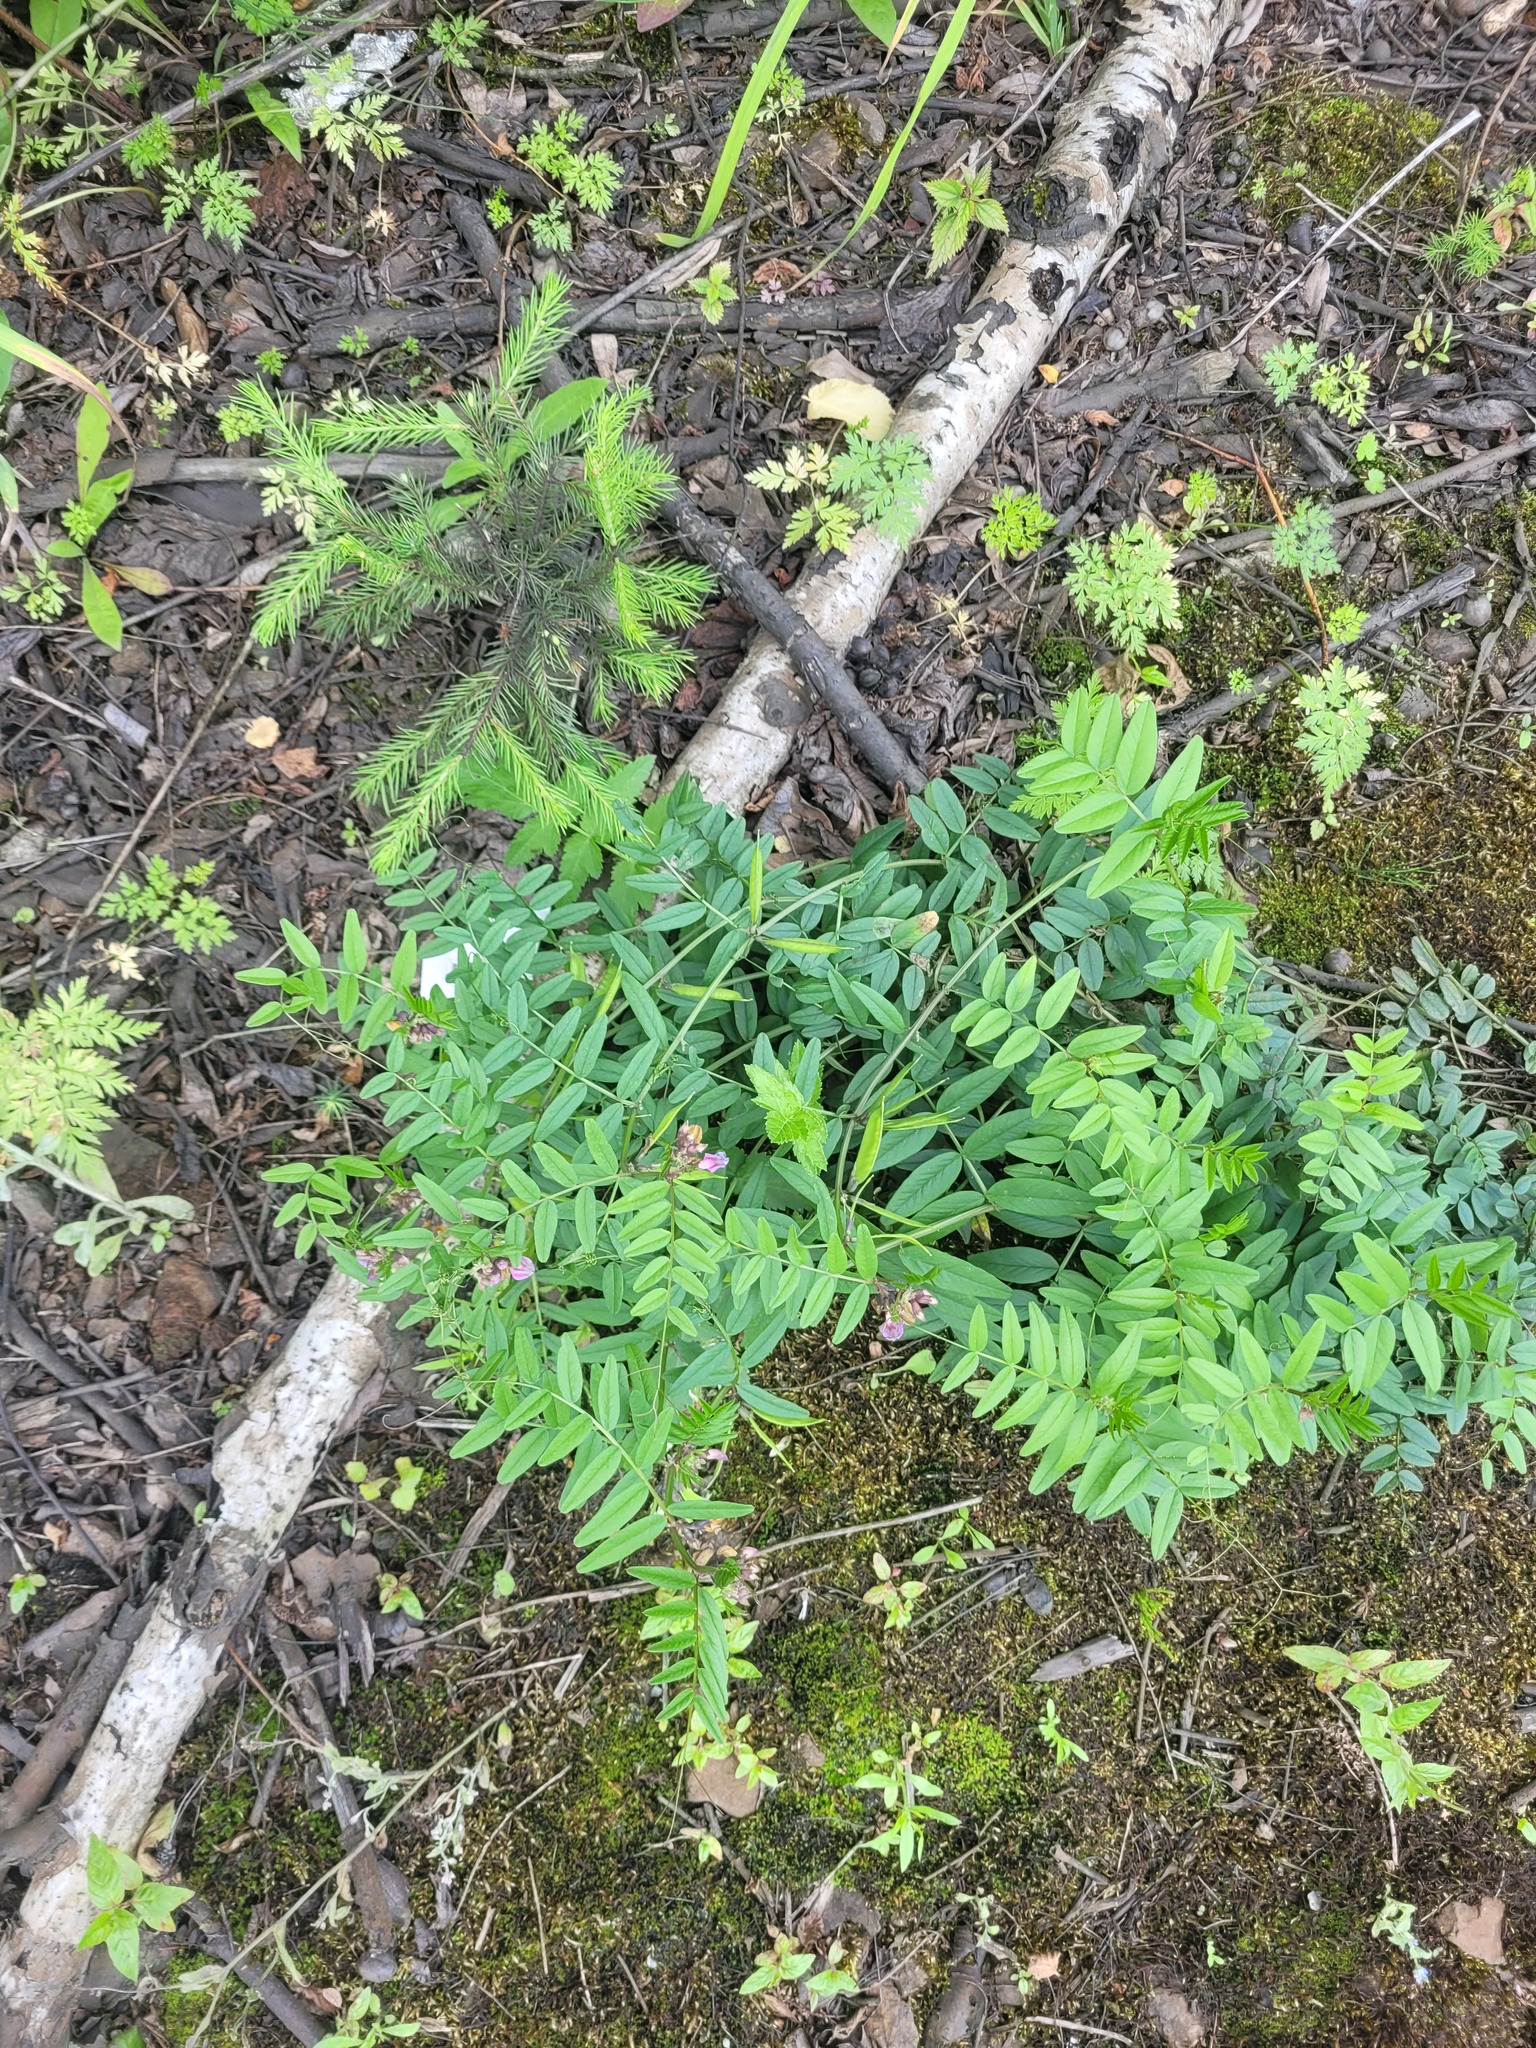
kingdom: Plantae
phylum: Tracheophyta
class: Magnoliopsida
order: Fabales
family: Fabaceae
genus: Vicia
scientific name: Vicia sepium
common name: Bush vetch
